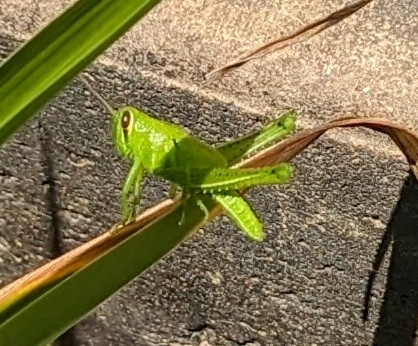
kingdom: Animalia
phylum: Arthropoda
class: Insecta
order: Orthoptera
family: Acrididae
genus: Schistocerca
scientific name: Schistocerca americana
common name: American bird locust
